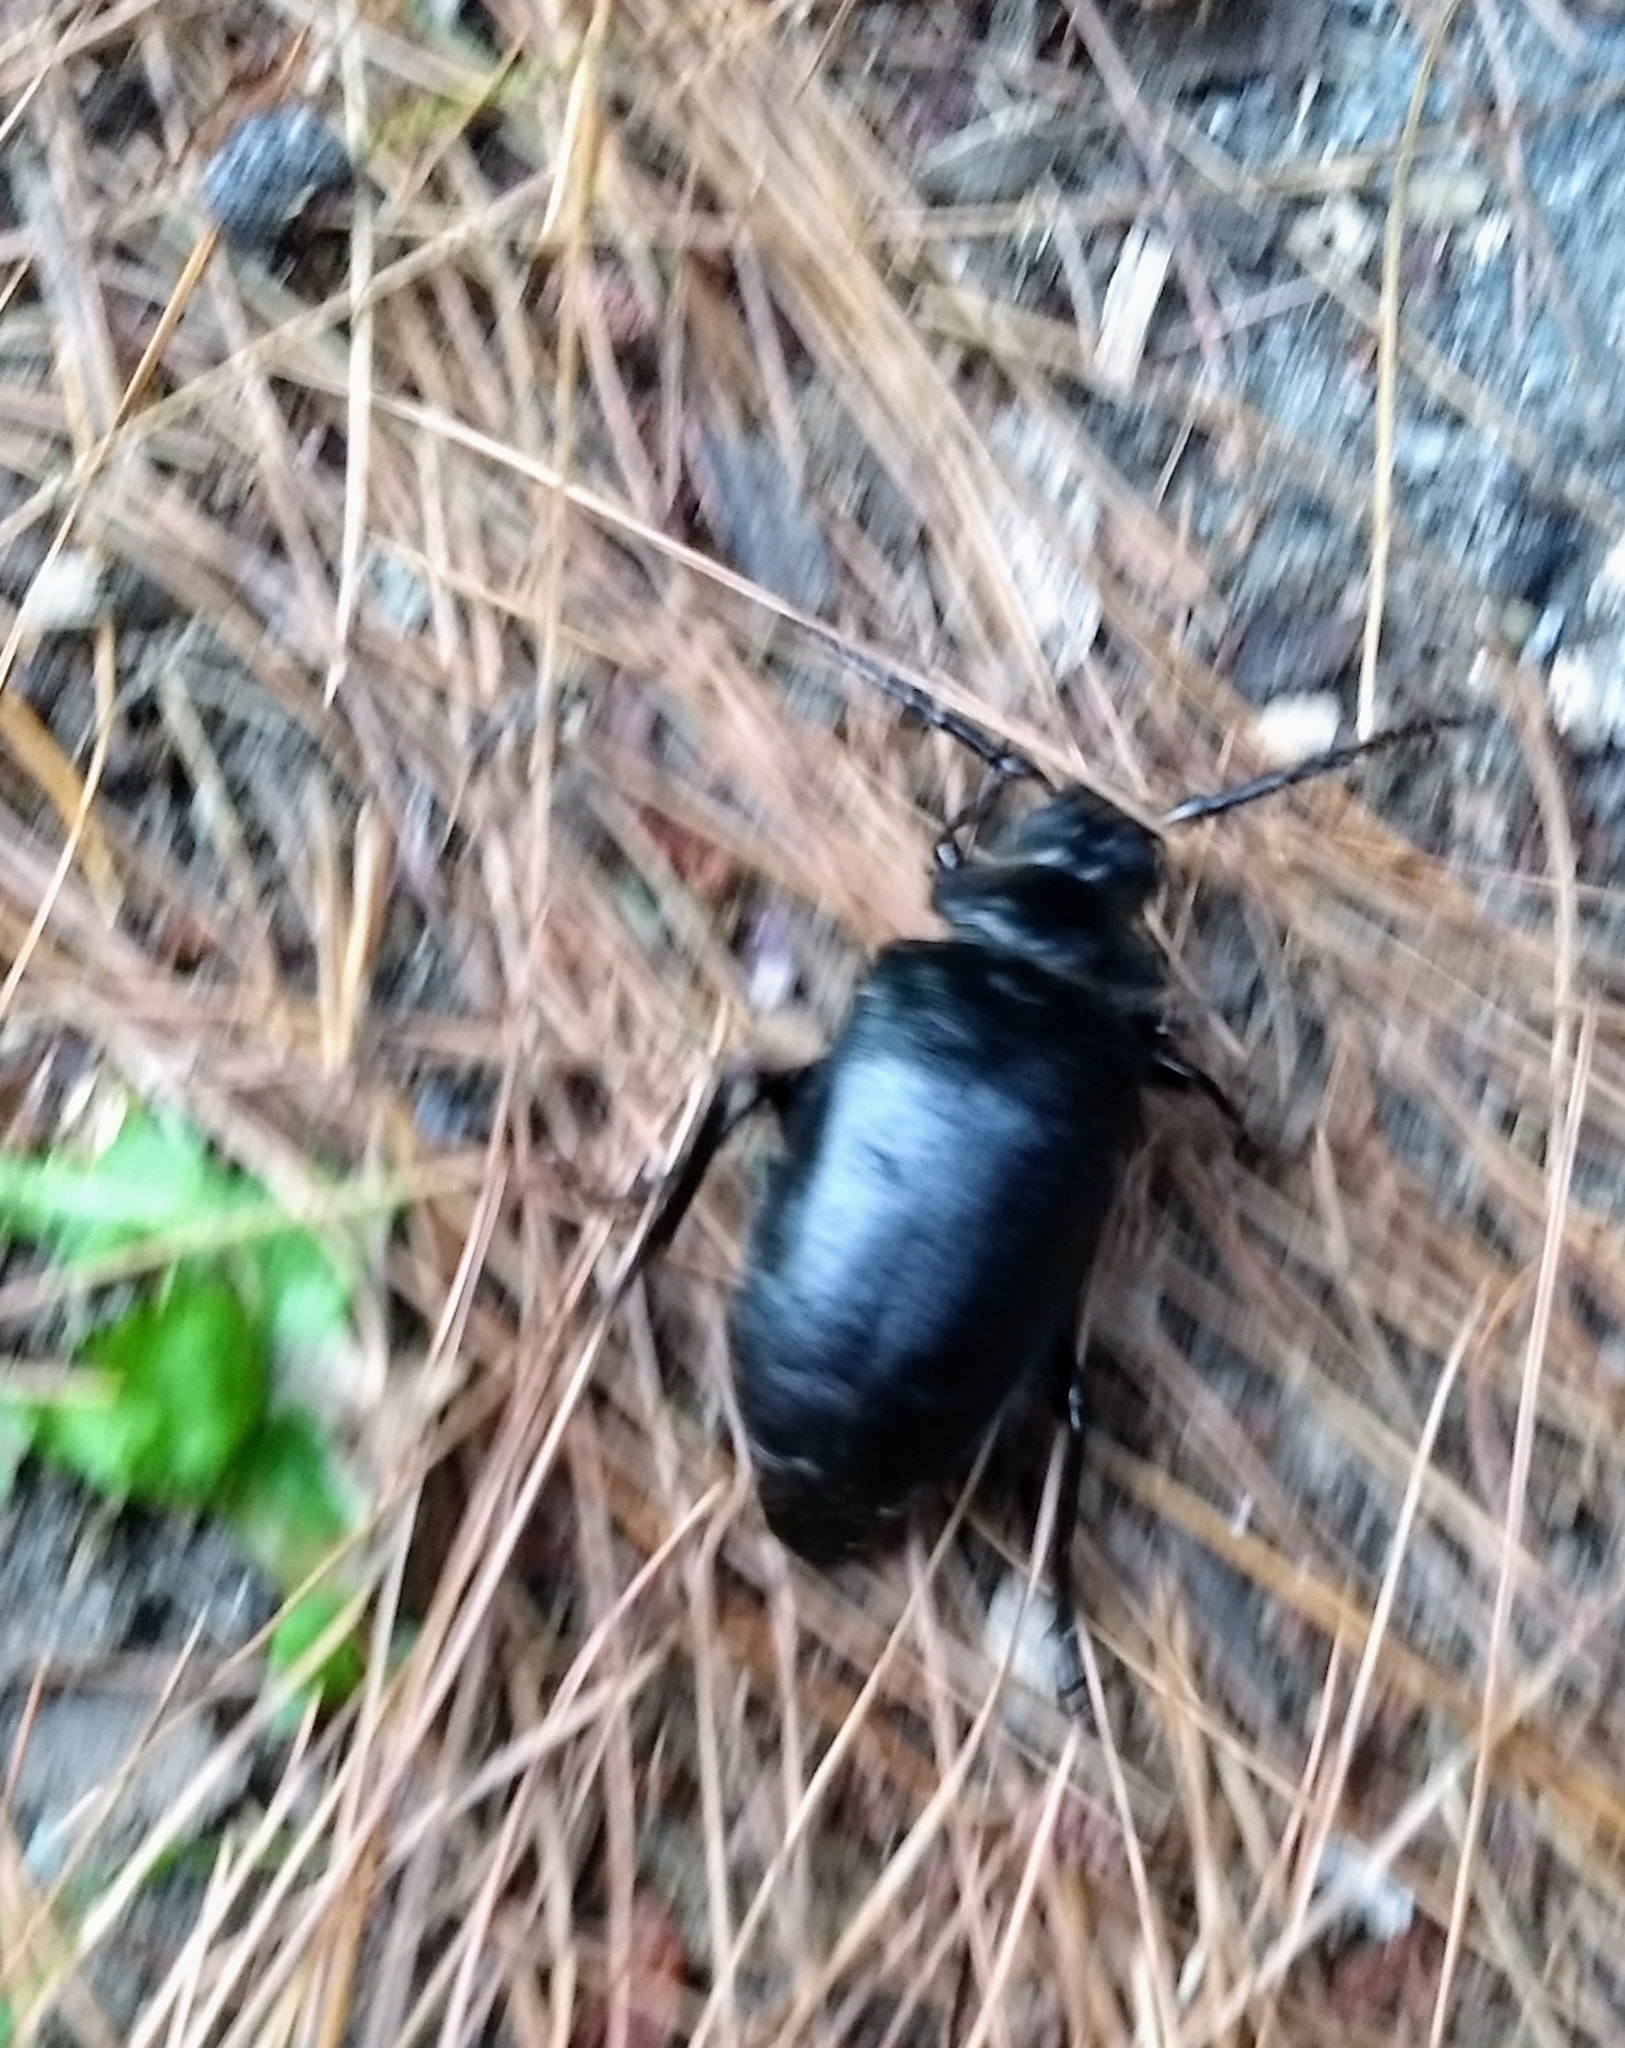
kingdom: Animalia
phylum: Arthropoda
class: Insecta
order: Coleoptera
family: Cerambycidae
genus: Prionus
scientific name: Prionus laticollis
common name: Broad necked prionus
